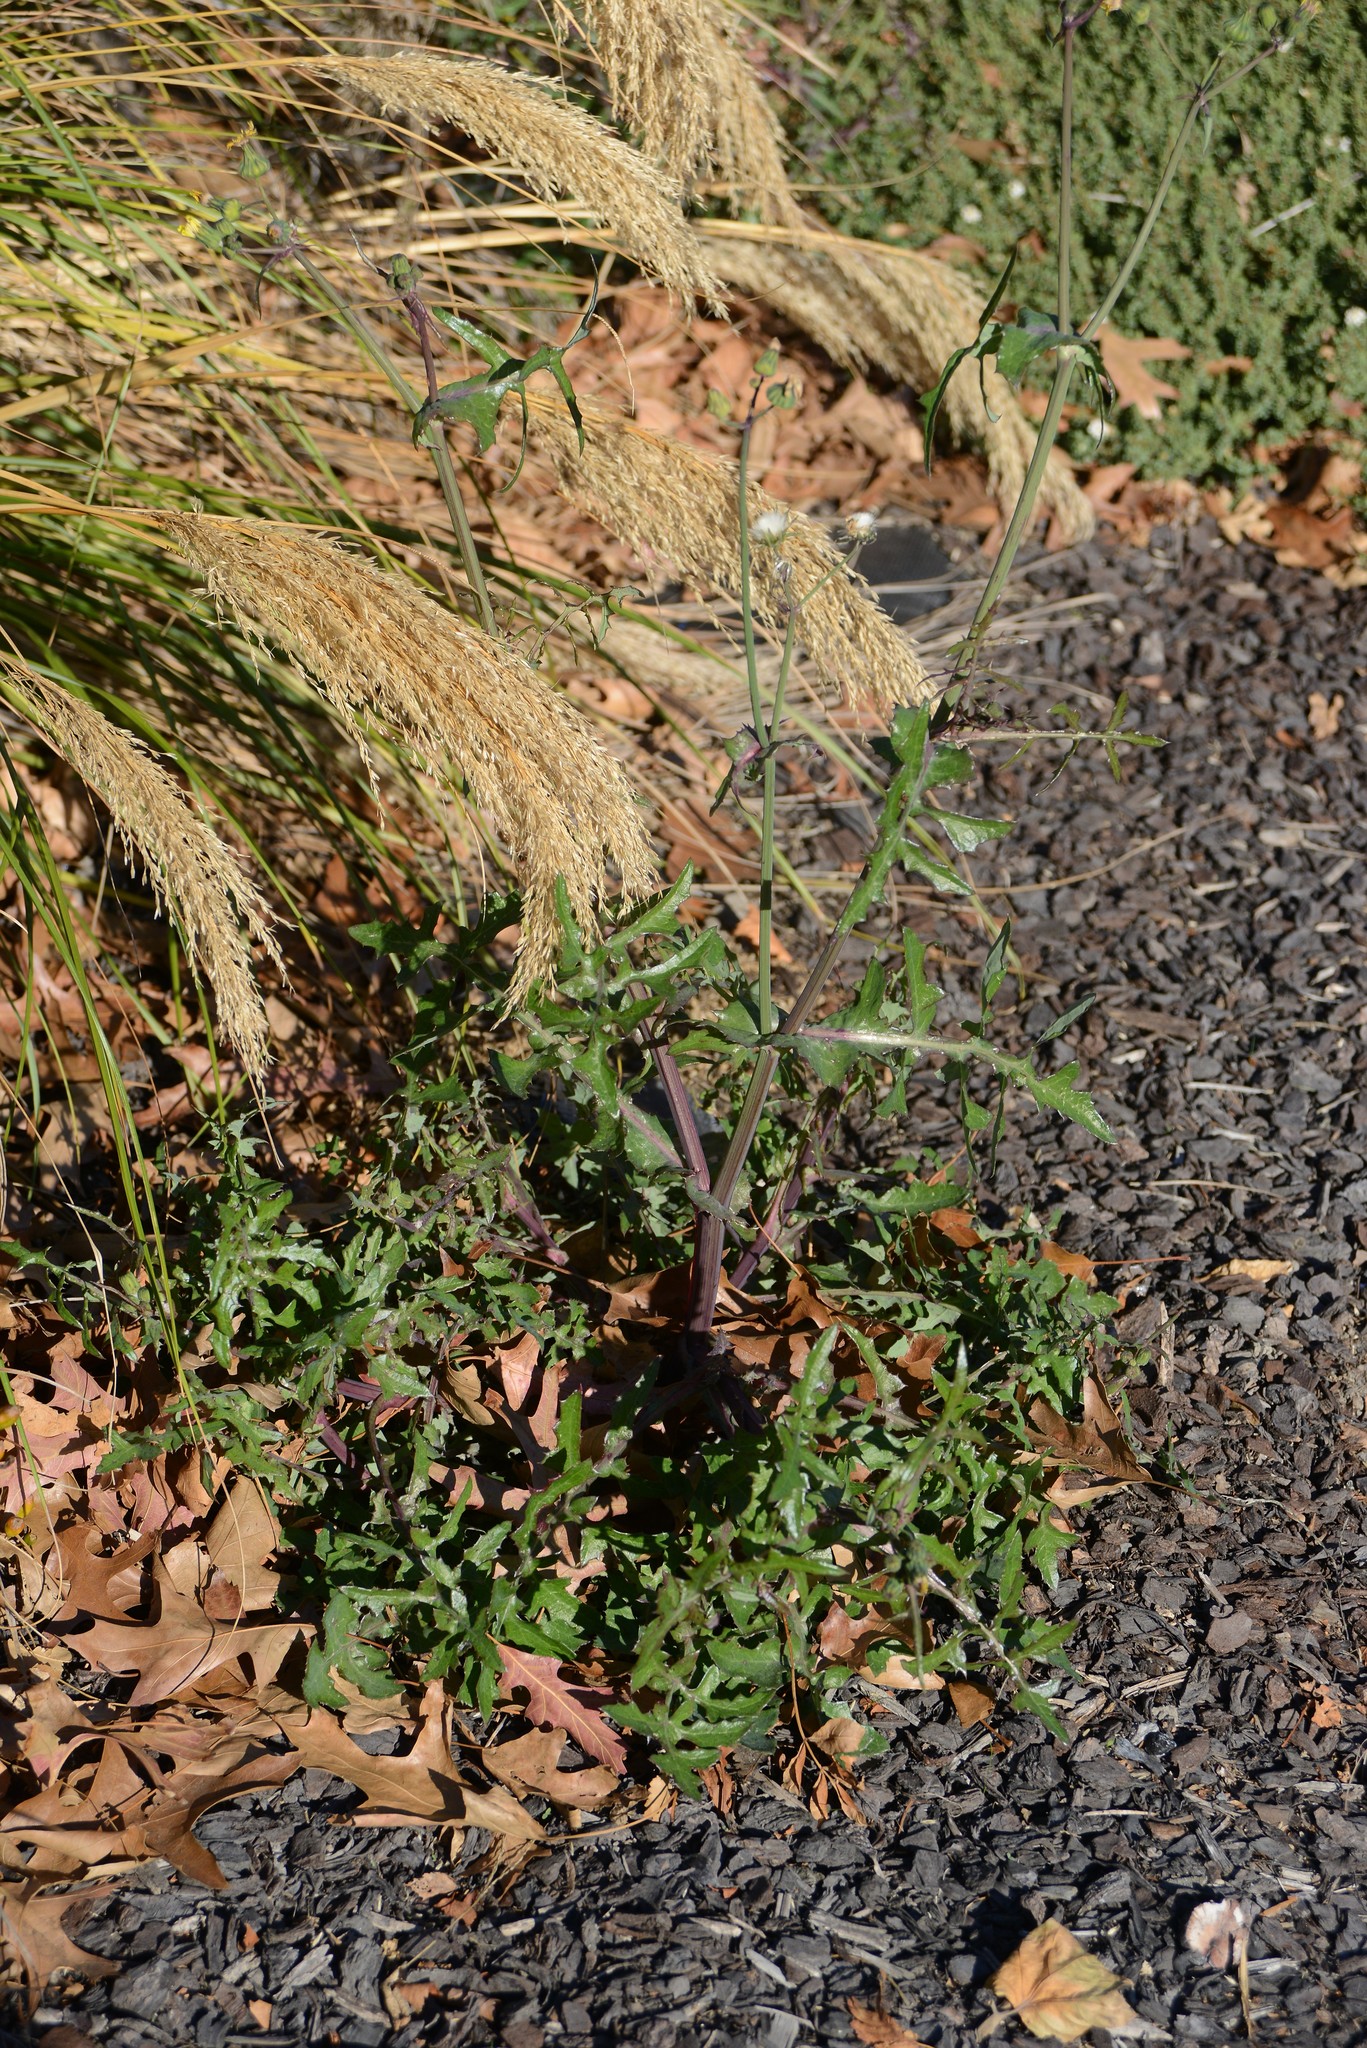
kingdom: Plantae
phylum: Tracheophyta
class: Magnoliopsida
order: Asterales
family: Asteraceae
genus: Sonchus
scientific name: Sonchus oleraceus
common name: Common sowthistle
